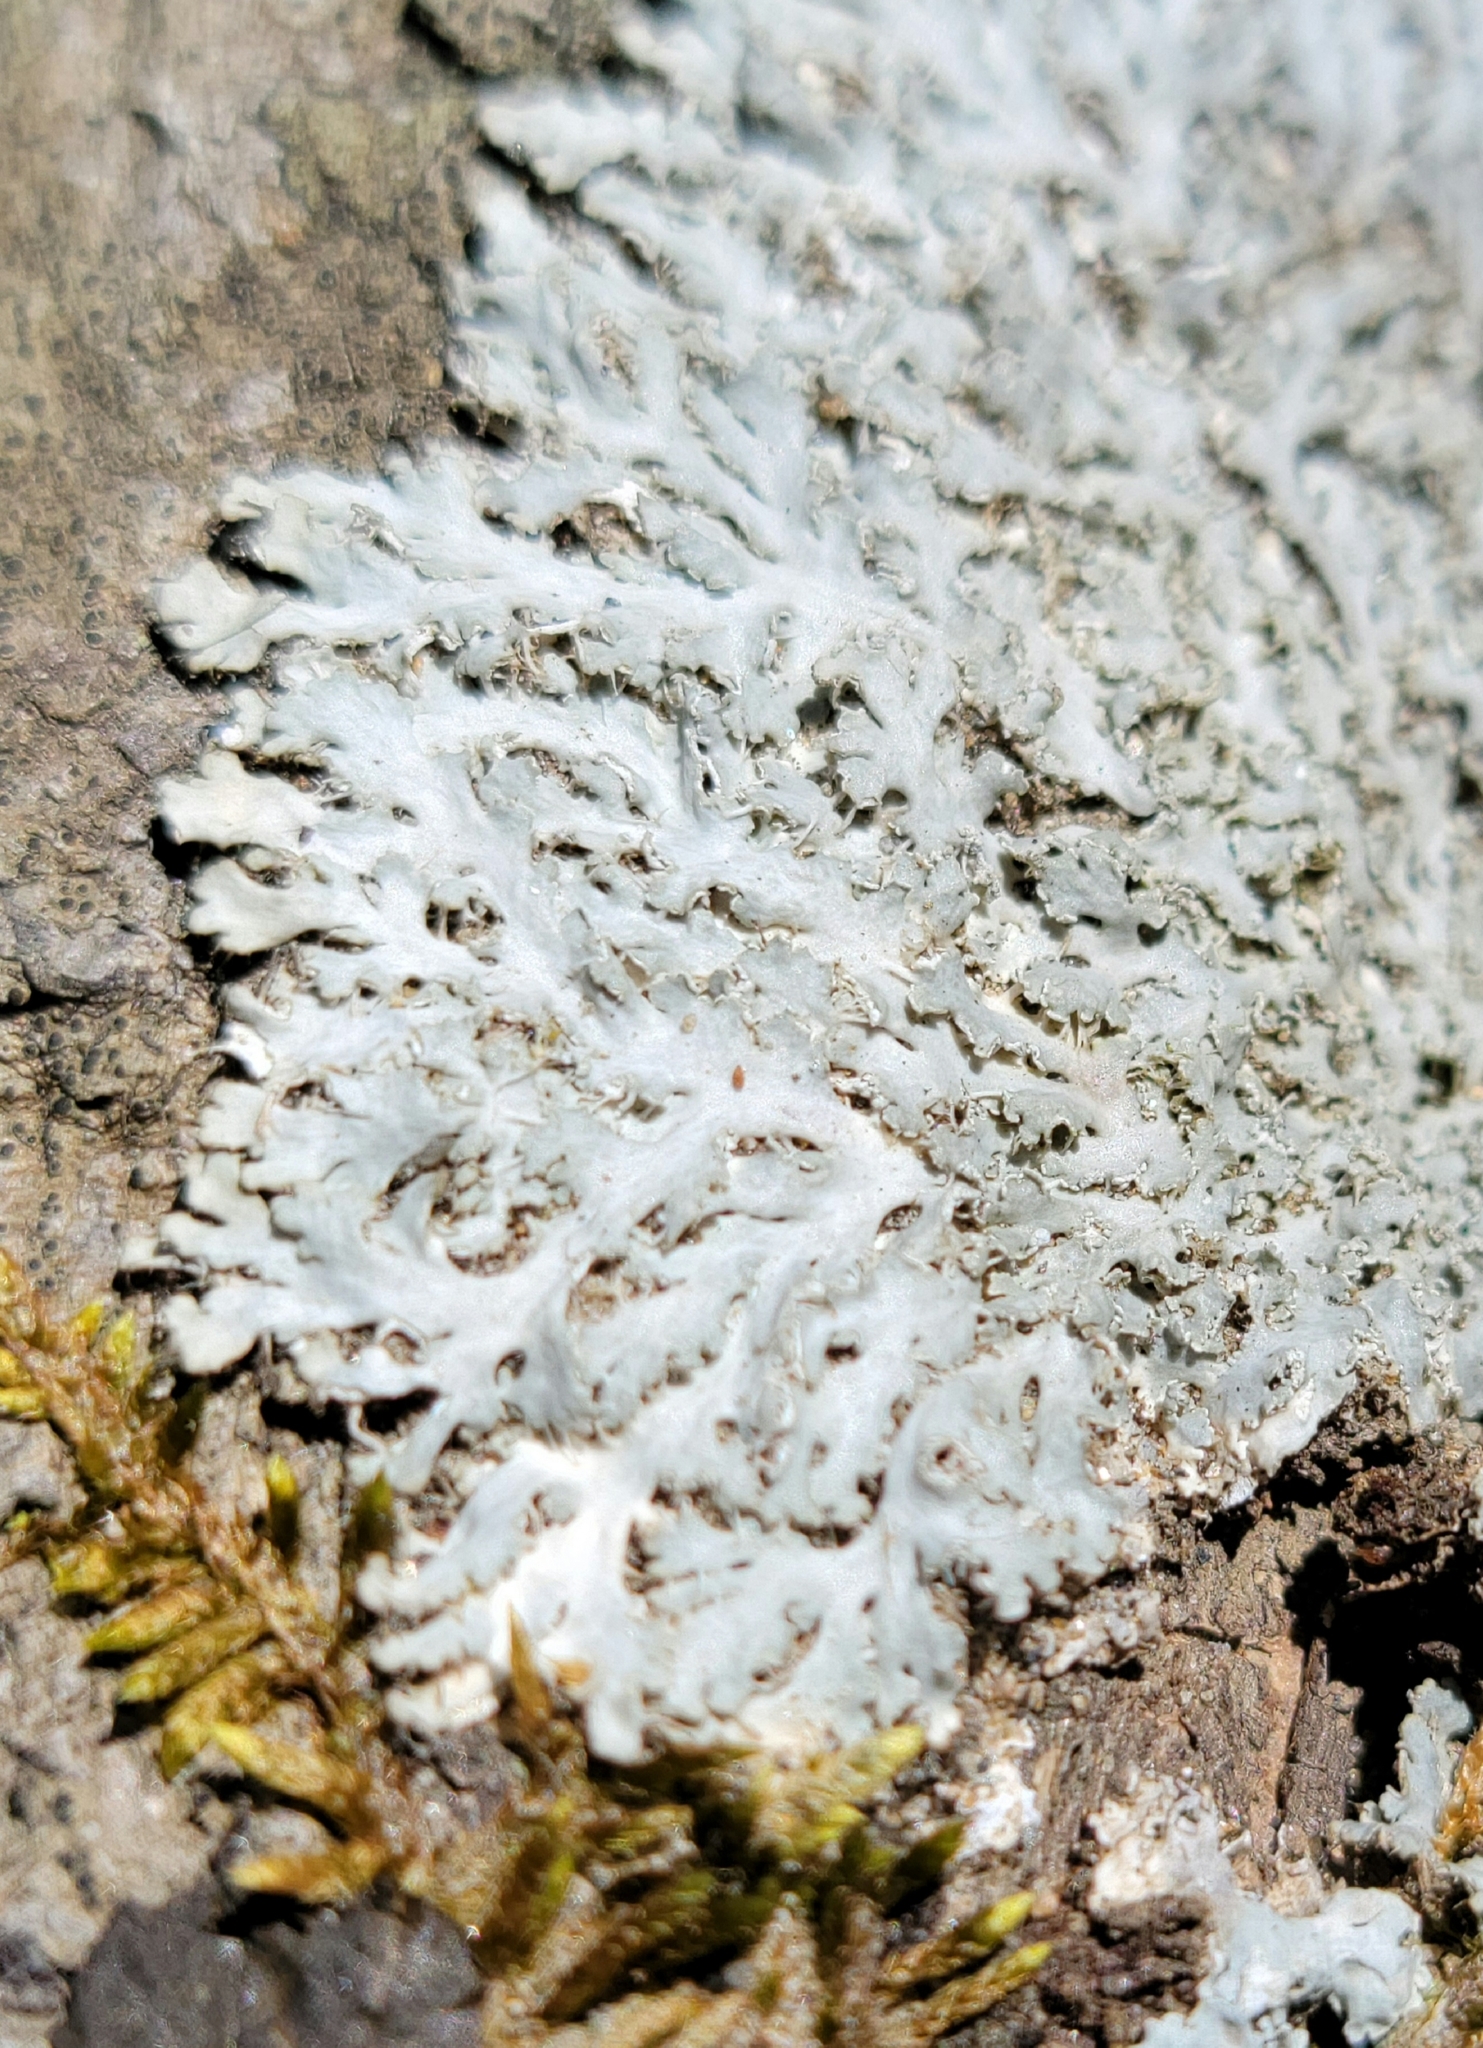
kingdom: Fungi
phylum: Ascomycota
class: Lecanoromycetes
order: Caliciales
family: Physciaceae
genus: Heterodermia
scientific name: Heterodermia speciosa
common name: Powdered fringe lichen
